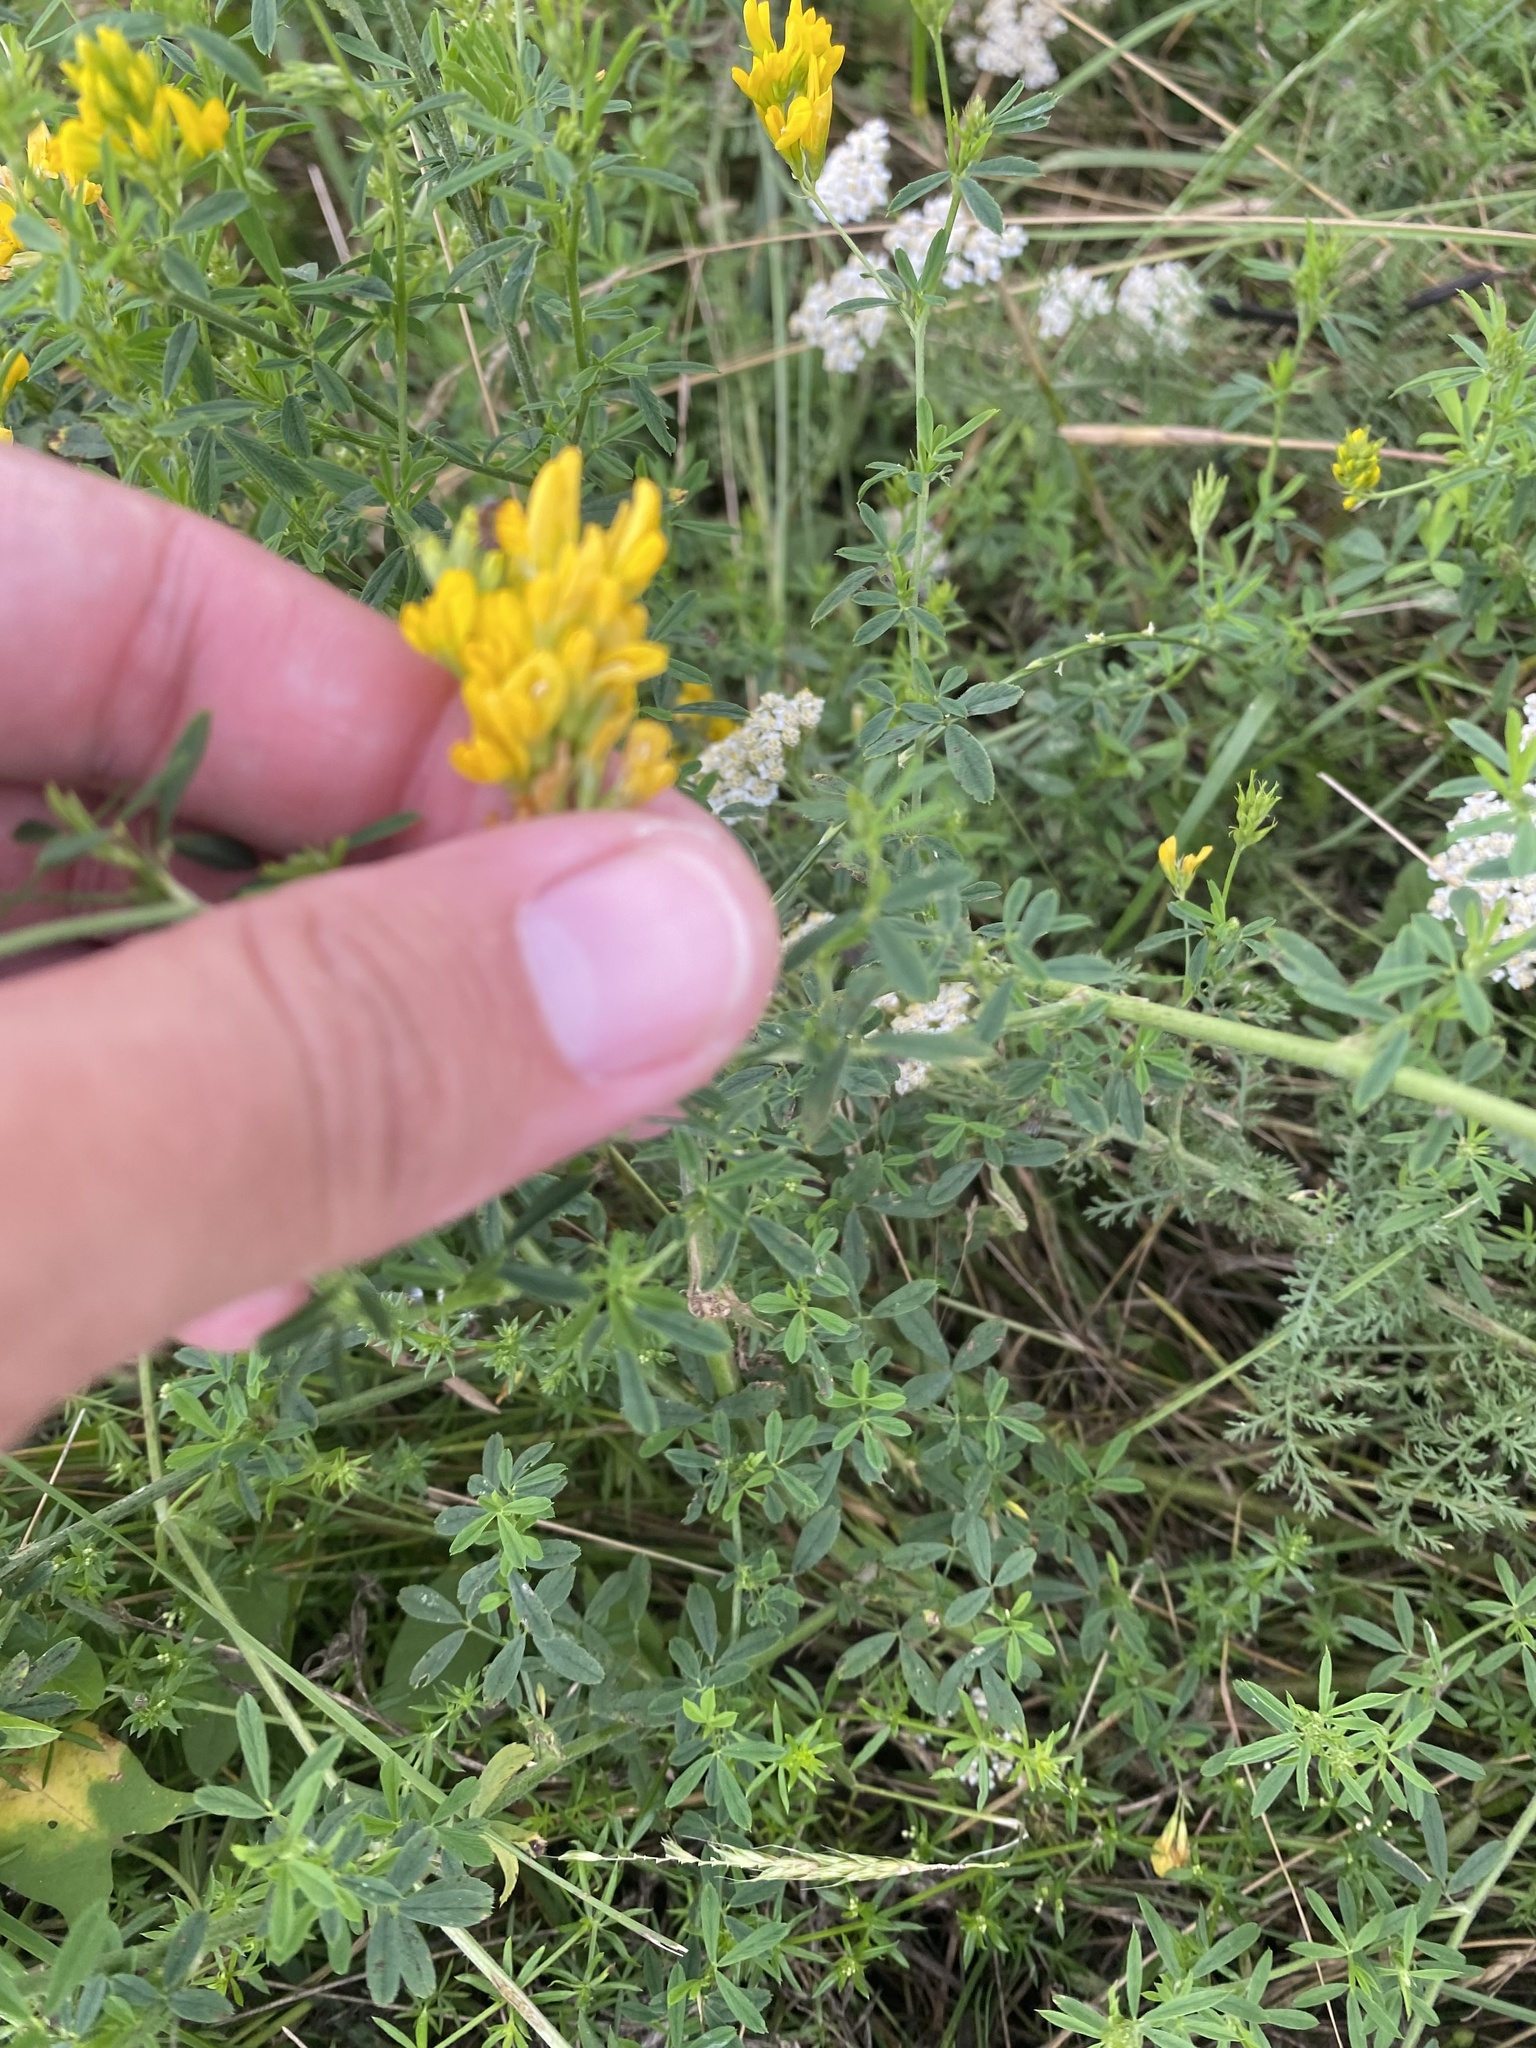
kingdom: Plantae
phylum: Tracheophyta
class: Magnoliopsida
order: Fabales
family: Fabaceae
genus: Medicago
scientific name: Medicago falcata
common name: Sickle medick
